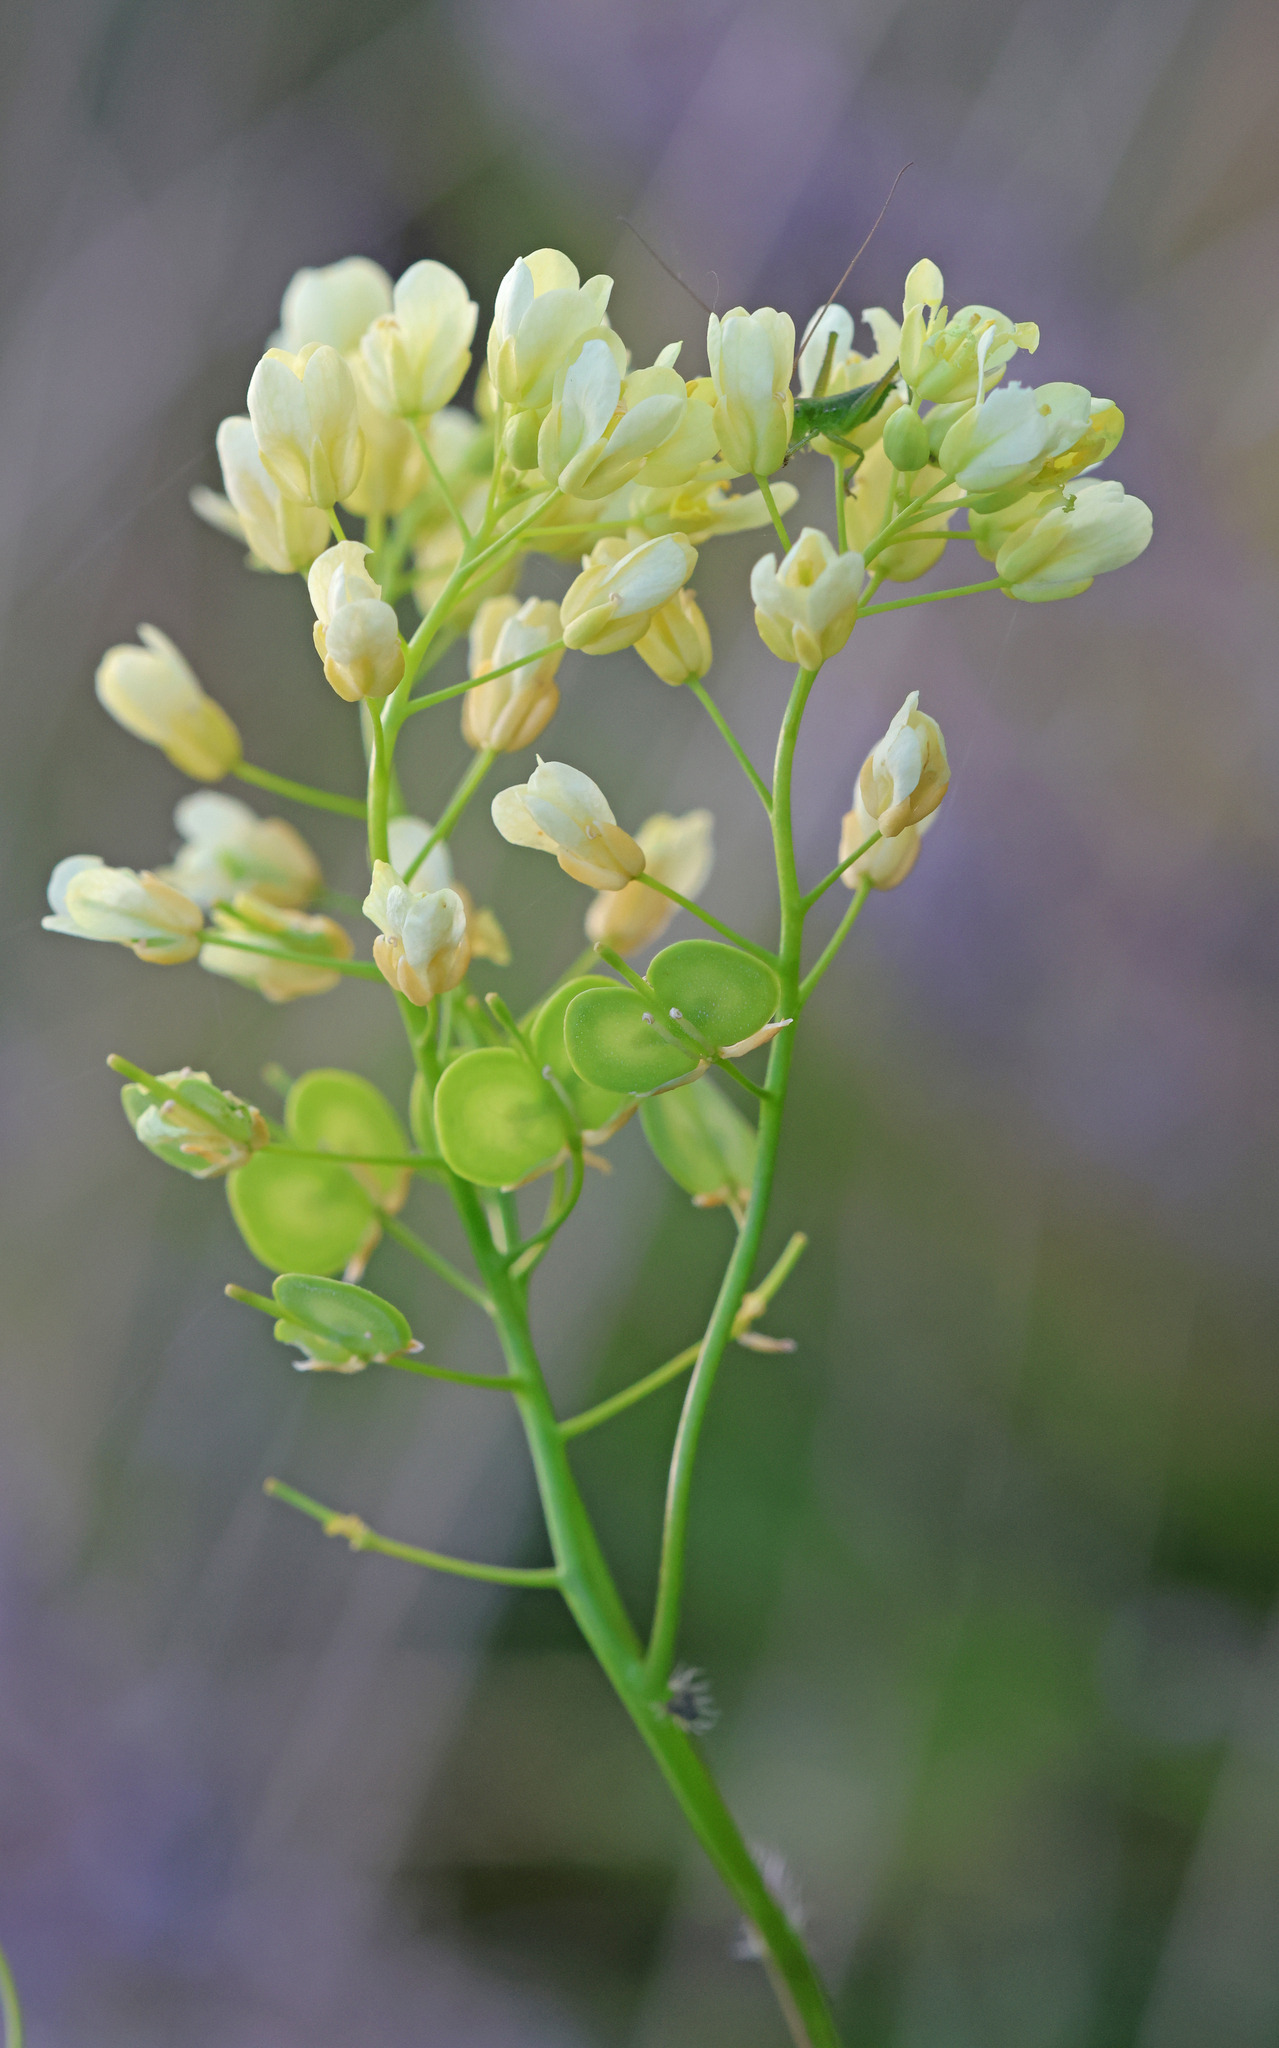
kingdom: Plantae
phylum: Tracheophyta
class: Magnoliopsida
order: Brassicales
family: Brassicaceae
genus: Biscutella
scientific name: Biscutella laevigata
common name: Buckler mustard
